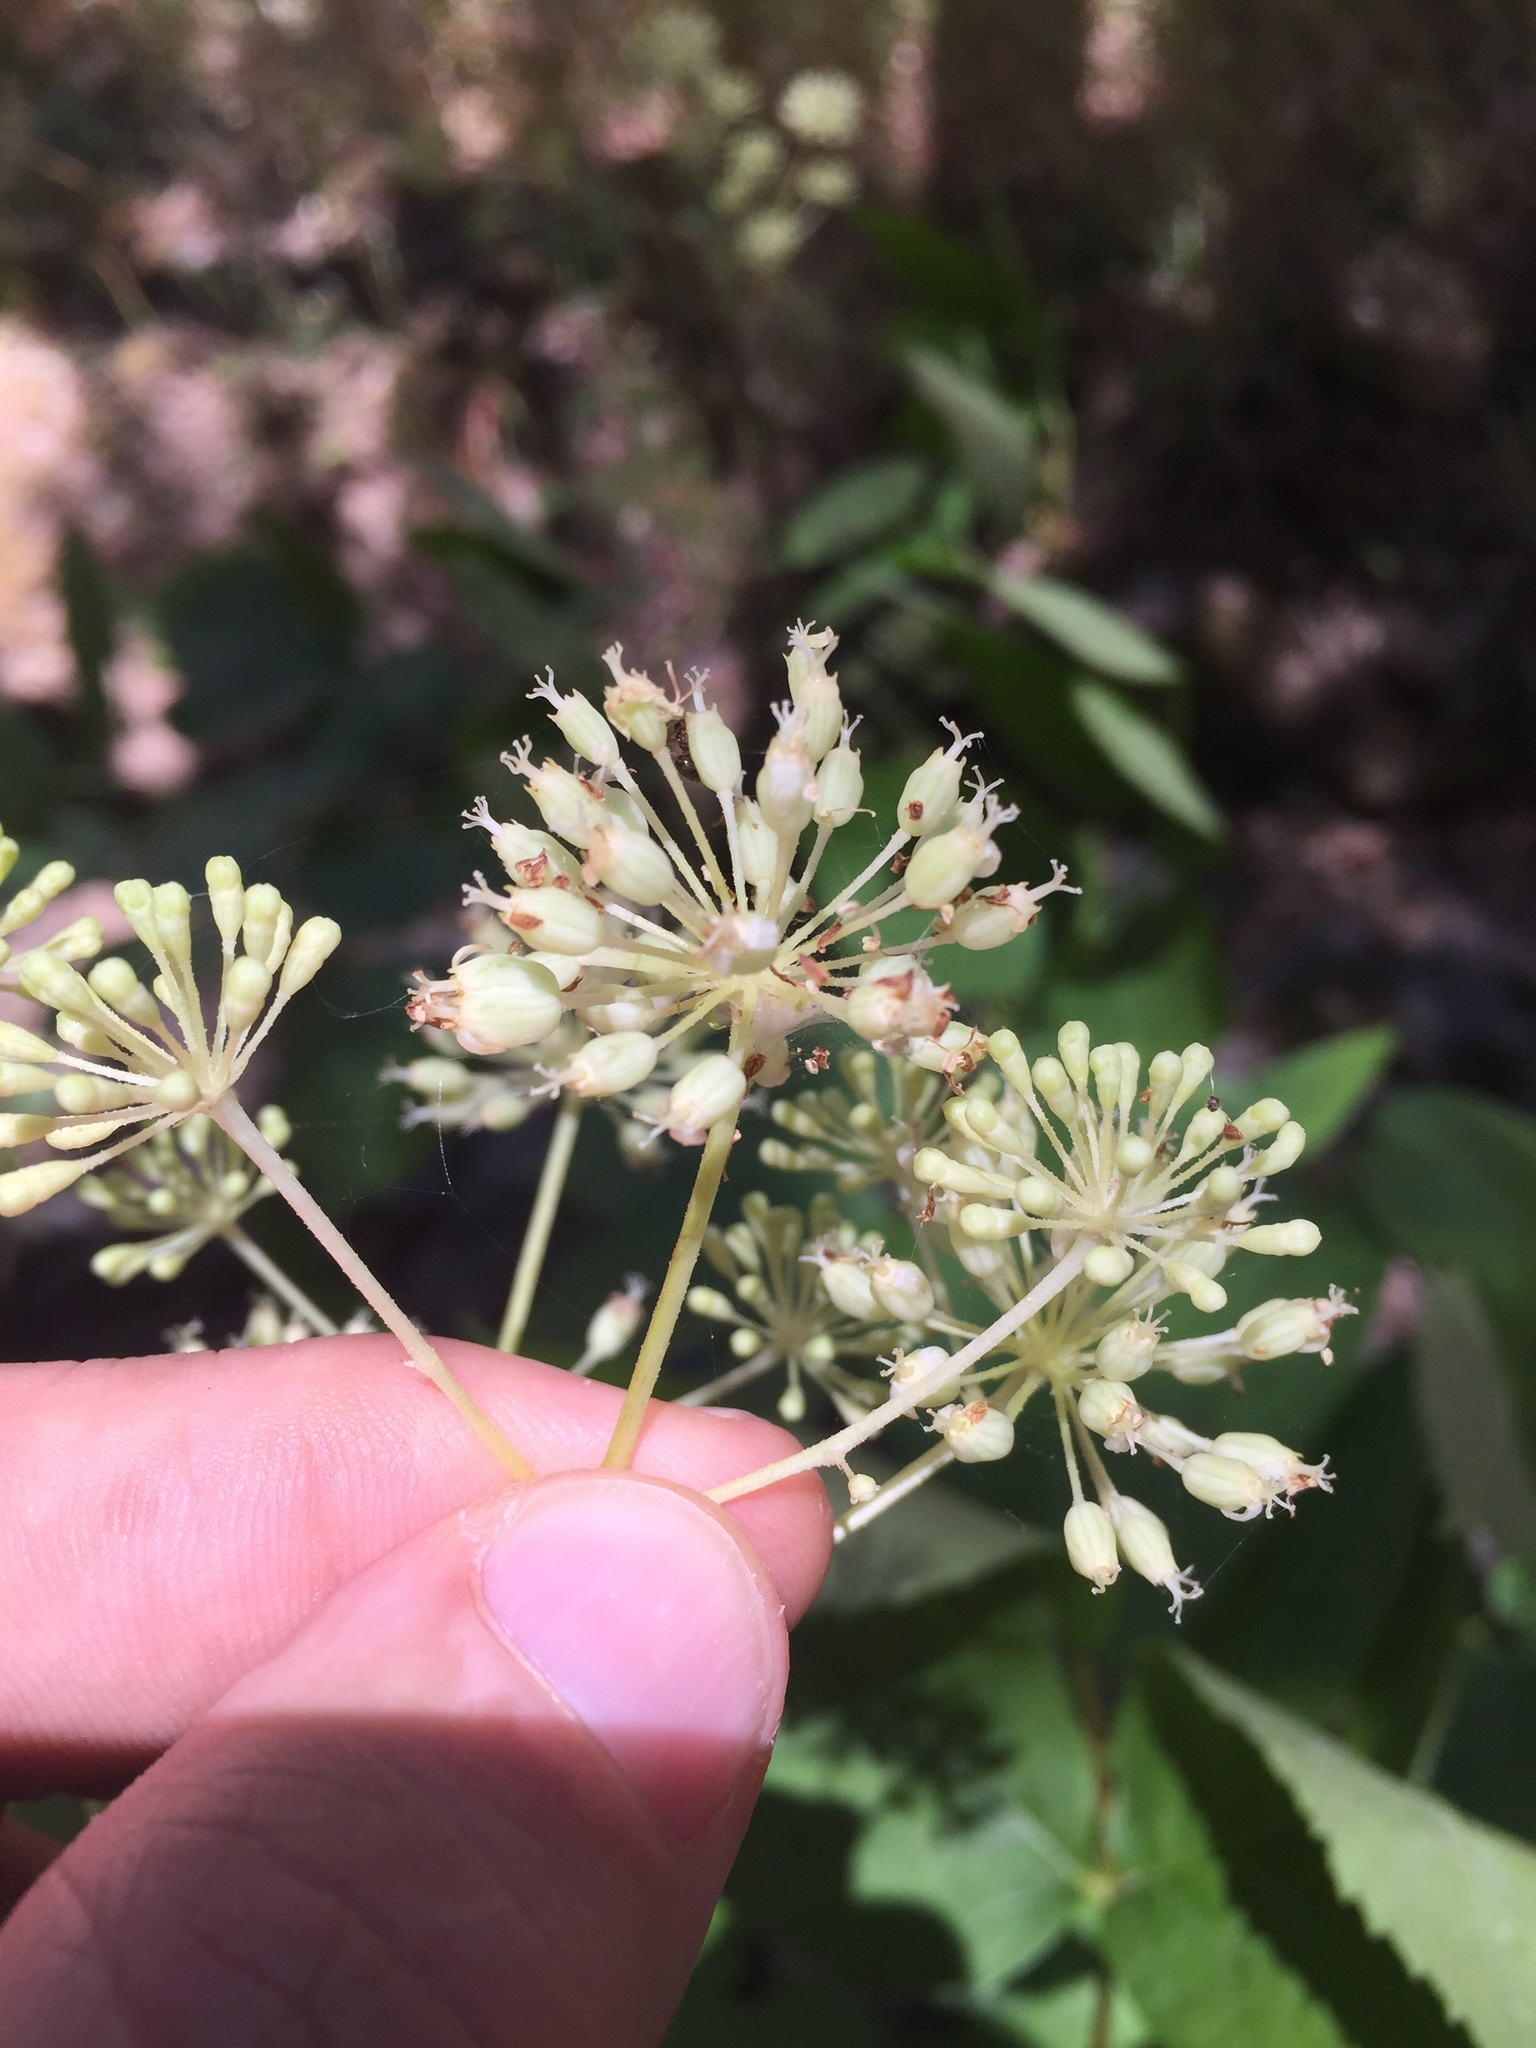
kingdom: Plantae
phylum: Tracheophyta
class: Magnoliopsida
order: Apiales
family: Araliaceae
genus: Aralia
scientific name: Aralia californica
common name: California-ginseng
